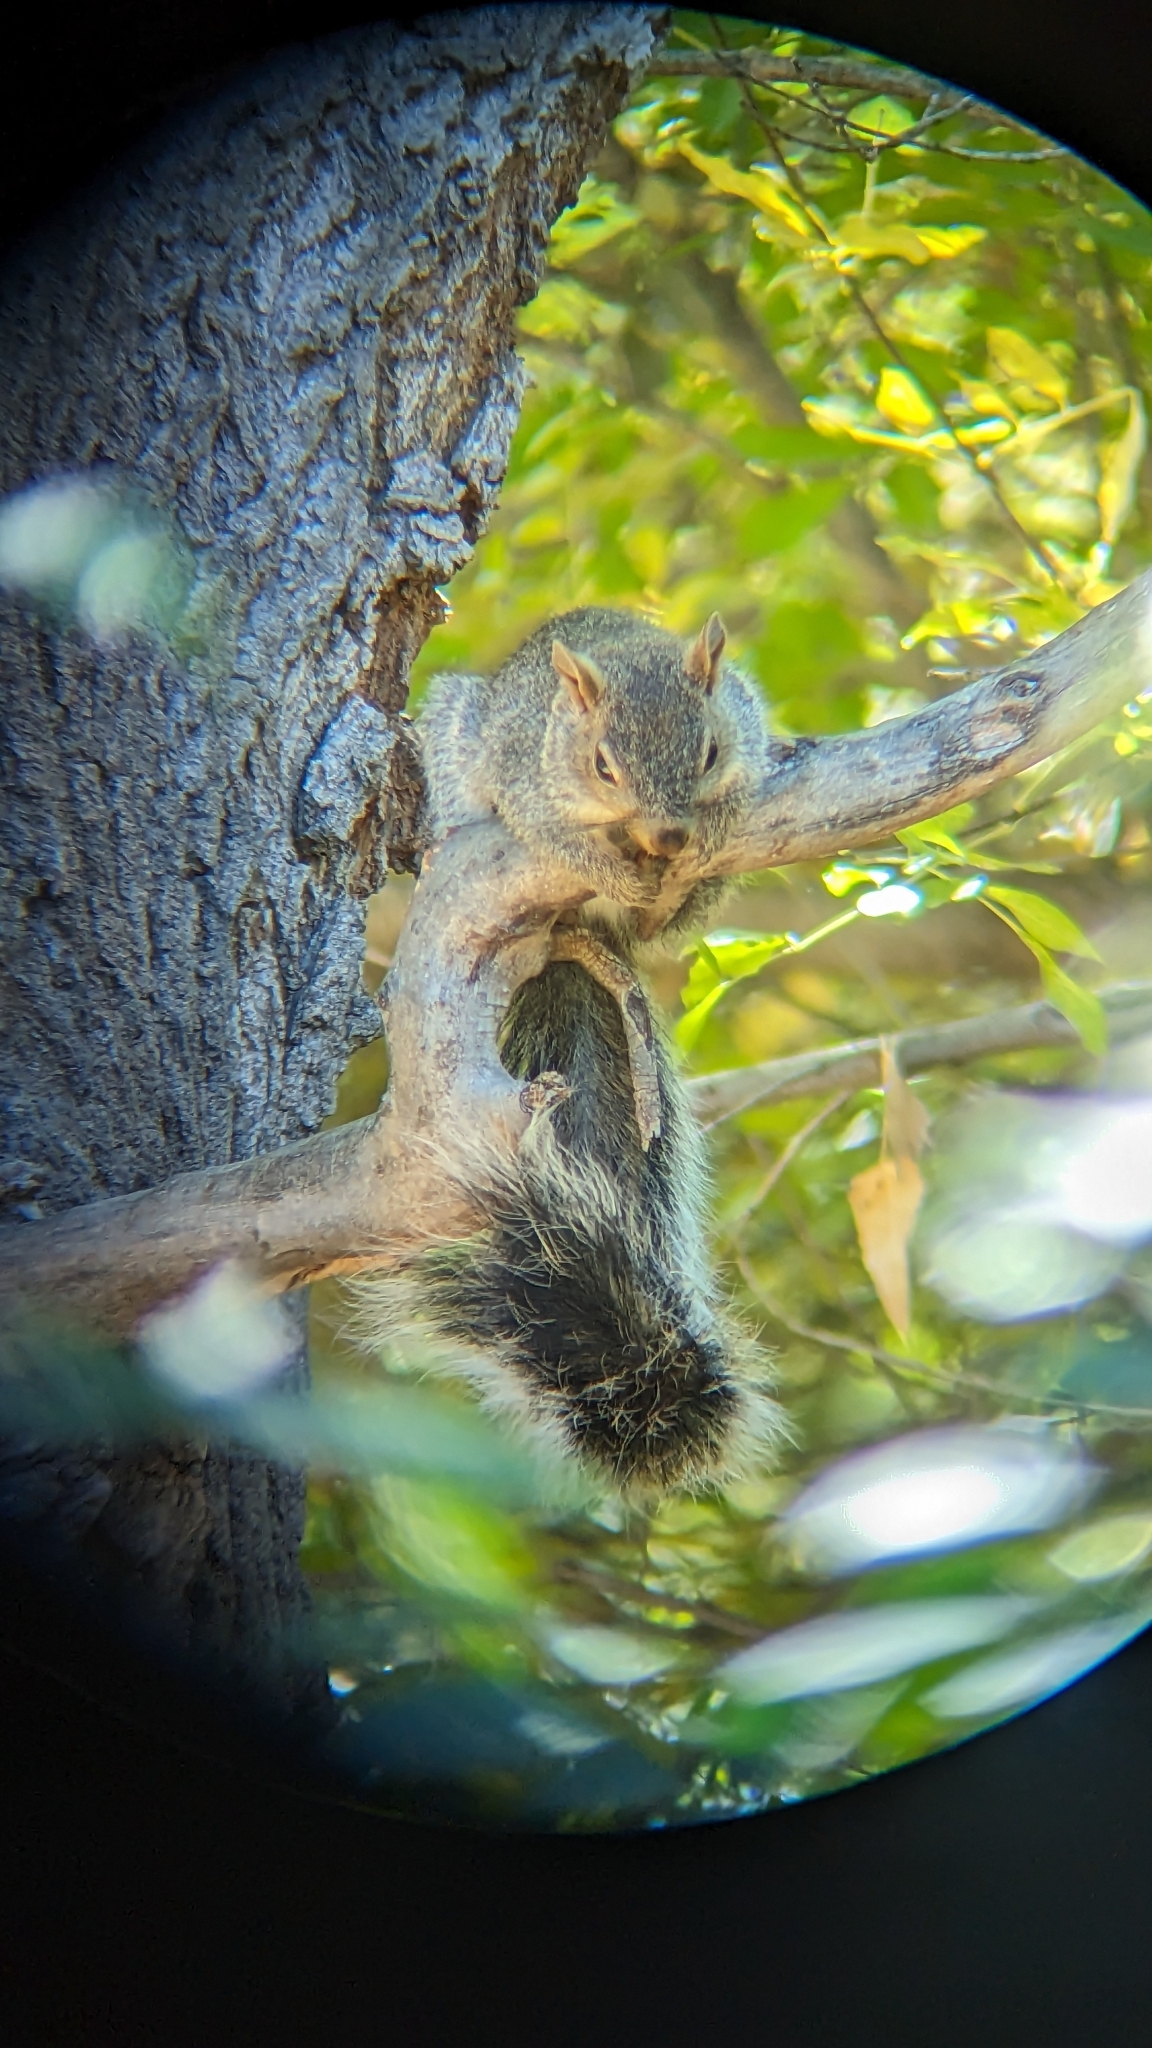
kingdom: Animalia
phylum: Chordata
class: Mammalia
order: Rodentia
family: Sciuridae
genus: Sciurus
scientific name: Sciurus arizonensis
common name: Arizona gray squirrel
